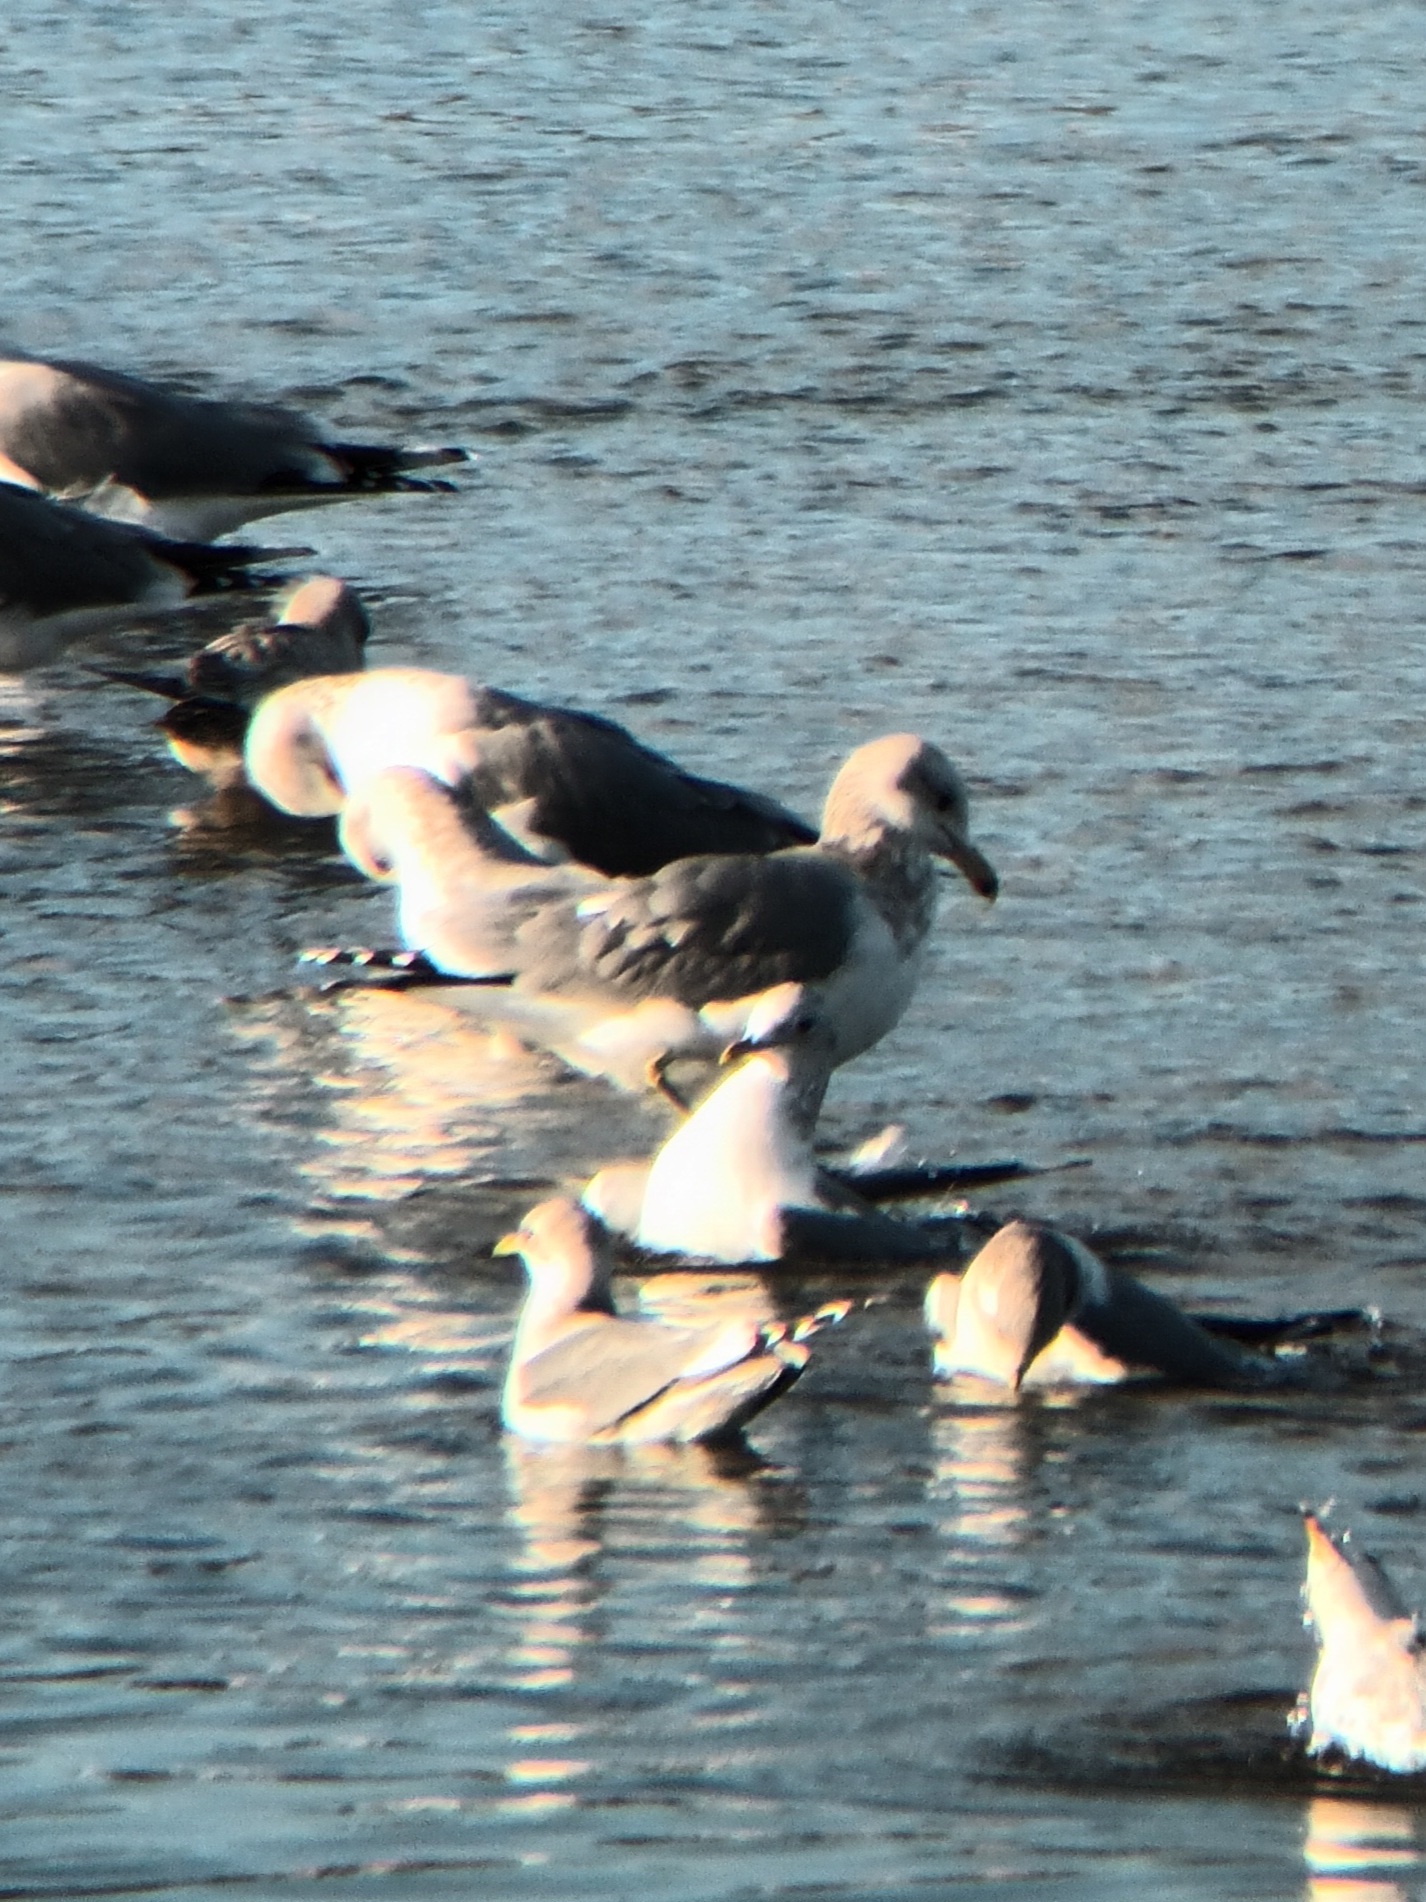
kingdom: Animalia
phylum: Chordata
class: Aves
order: Charadriiformes
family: Laridae
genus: Larus
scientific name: Larus californicus
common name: California gull
